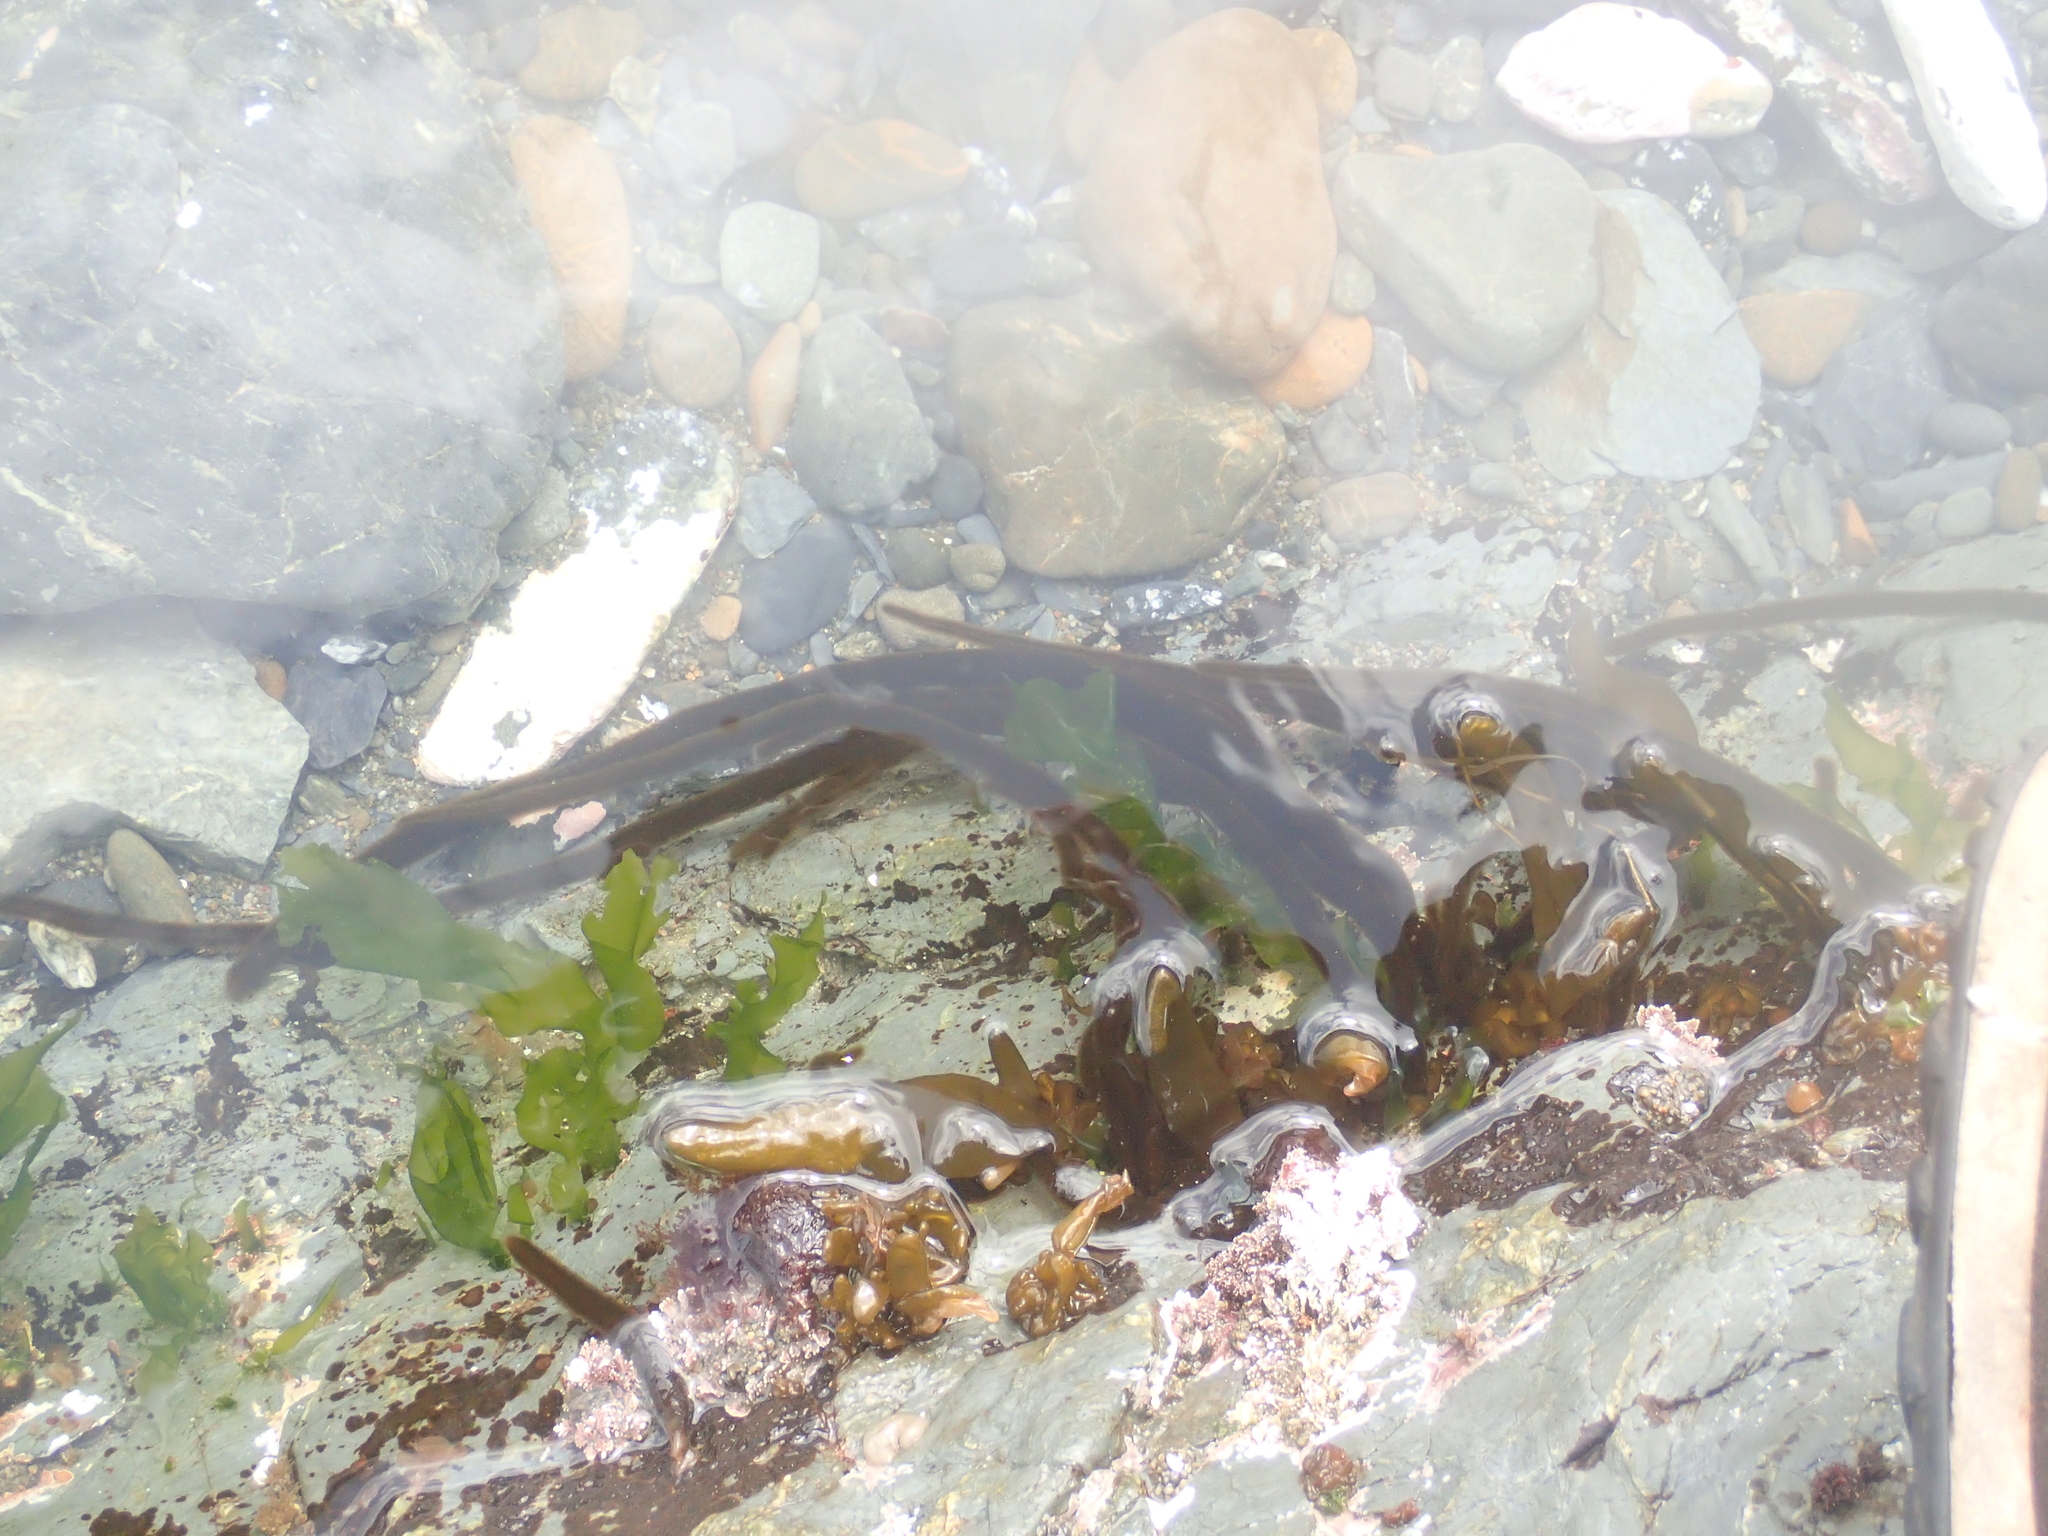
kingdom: Chromista
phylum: Ochrophyta
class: Phaeophyceae
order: Ectocarpales
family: Chordariaceae
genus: Myriogloea
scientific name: Myriogloea intestinalis
